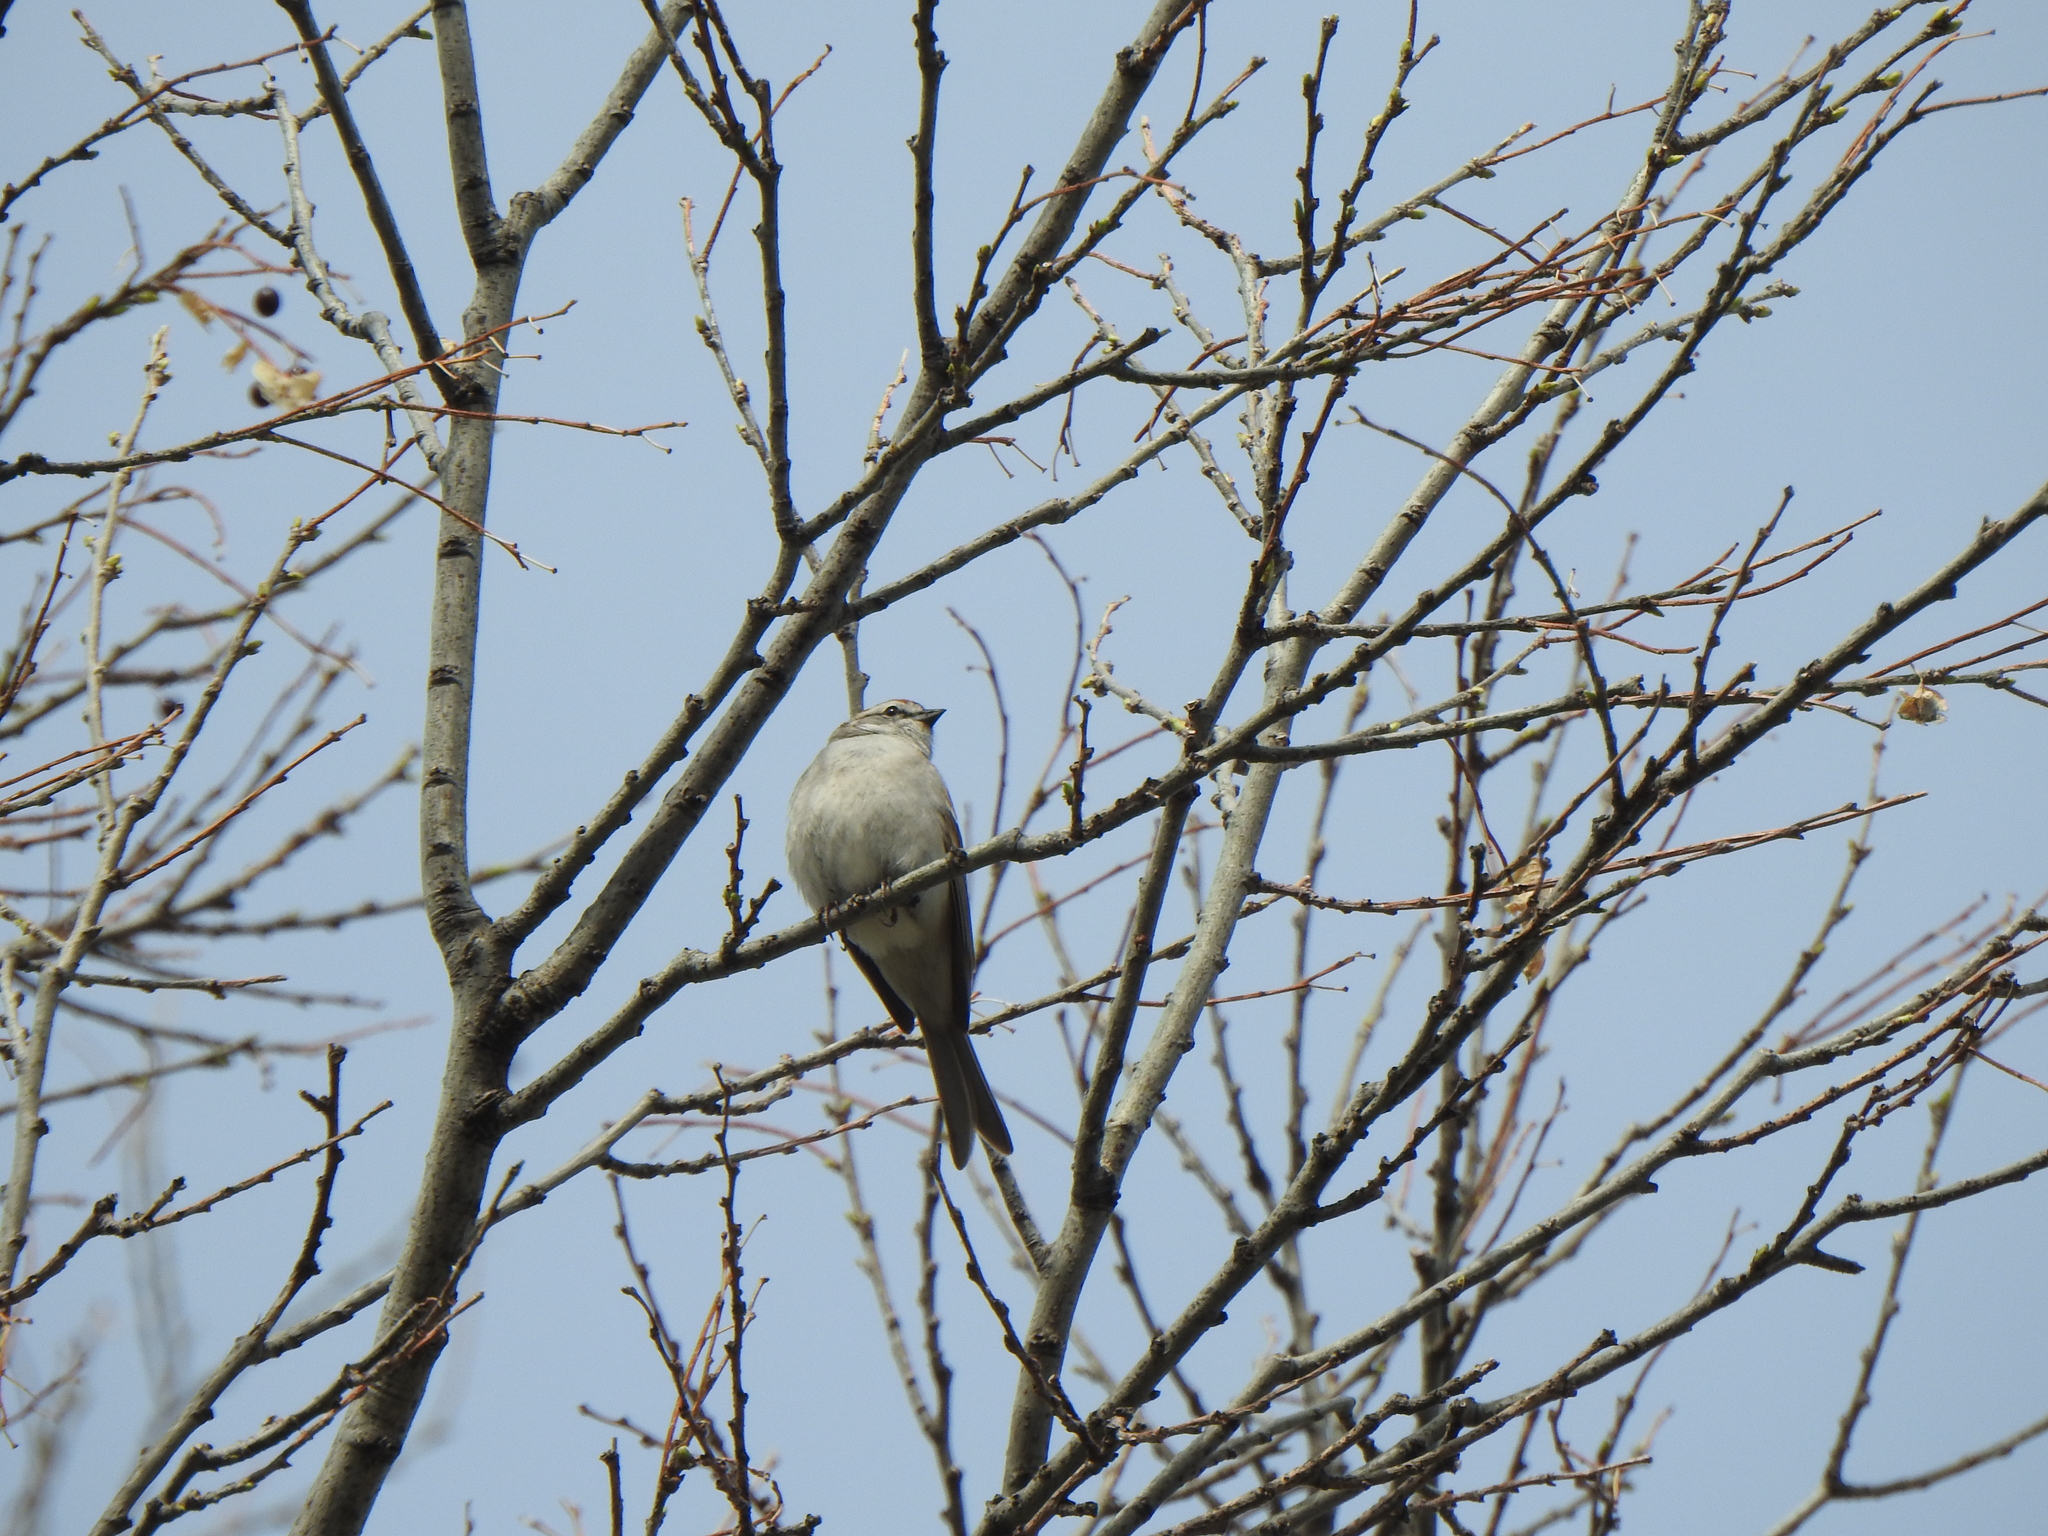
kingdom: Animalia
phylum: Chordata
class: Aves
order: Passeriformes
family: Passerellidae
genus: Spizella
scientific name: Spizella passerina
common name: Chipping sparrow
